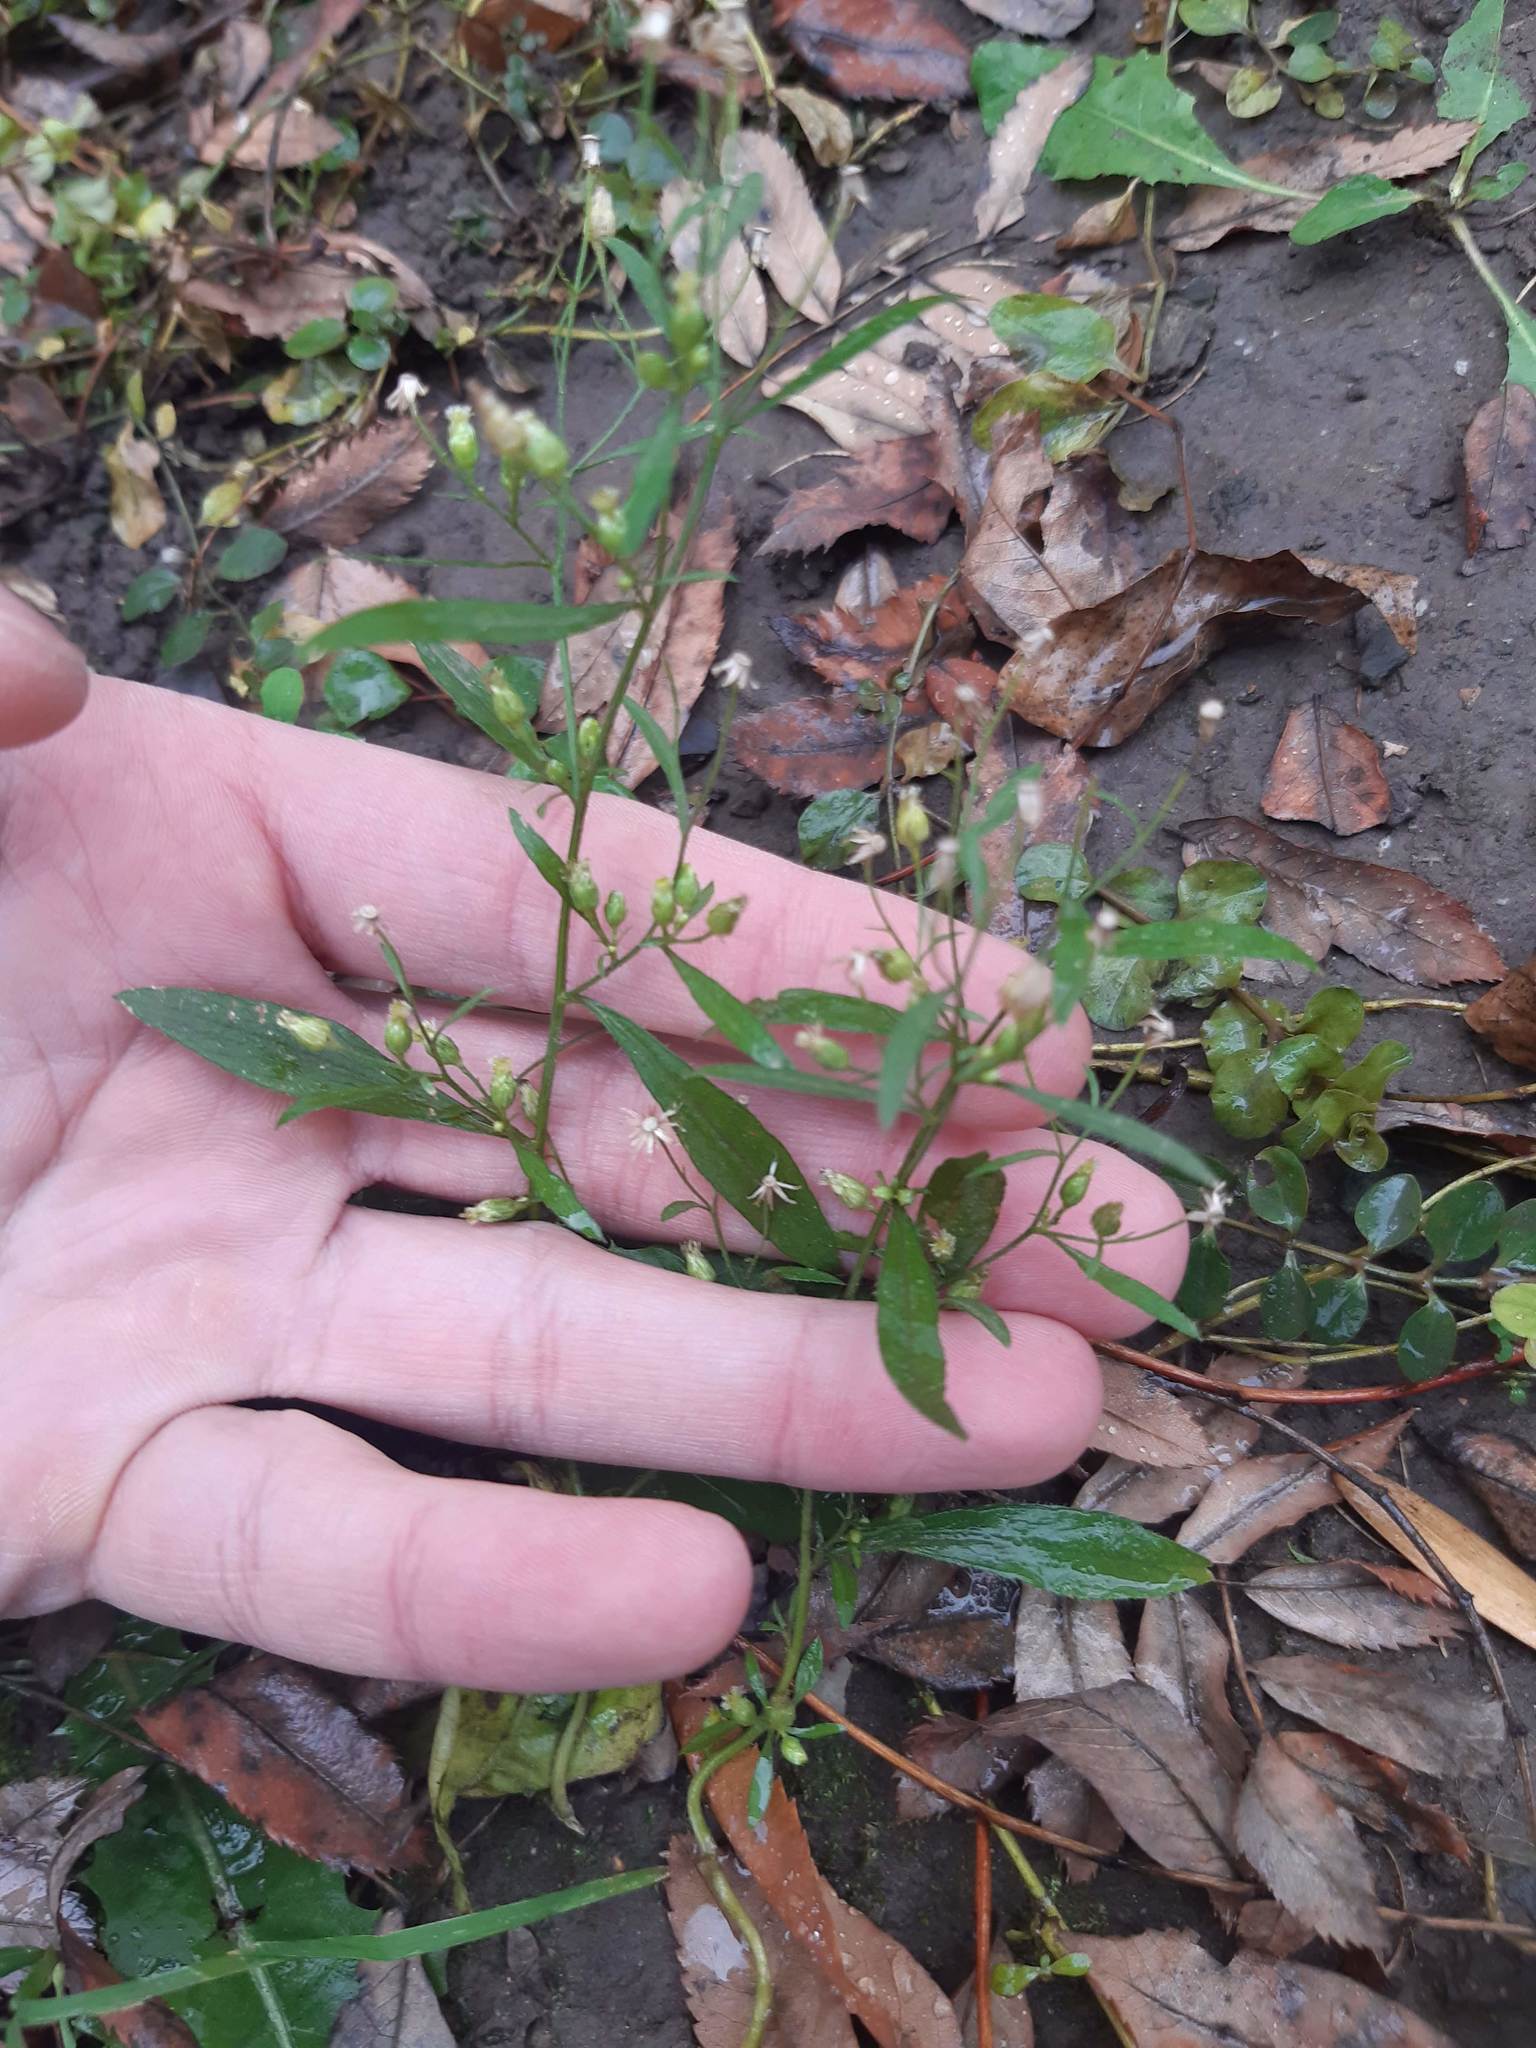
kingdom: Plantae
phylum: Tracheophyta
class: Magnoliopsida
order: Asterales
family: Asteraceae
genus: Erigeron
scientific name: Erigeron canadensis
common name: Canadian fleabane
